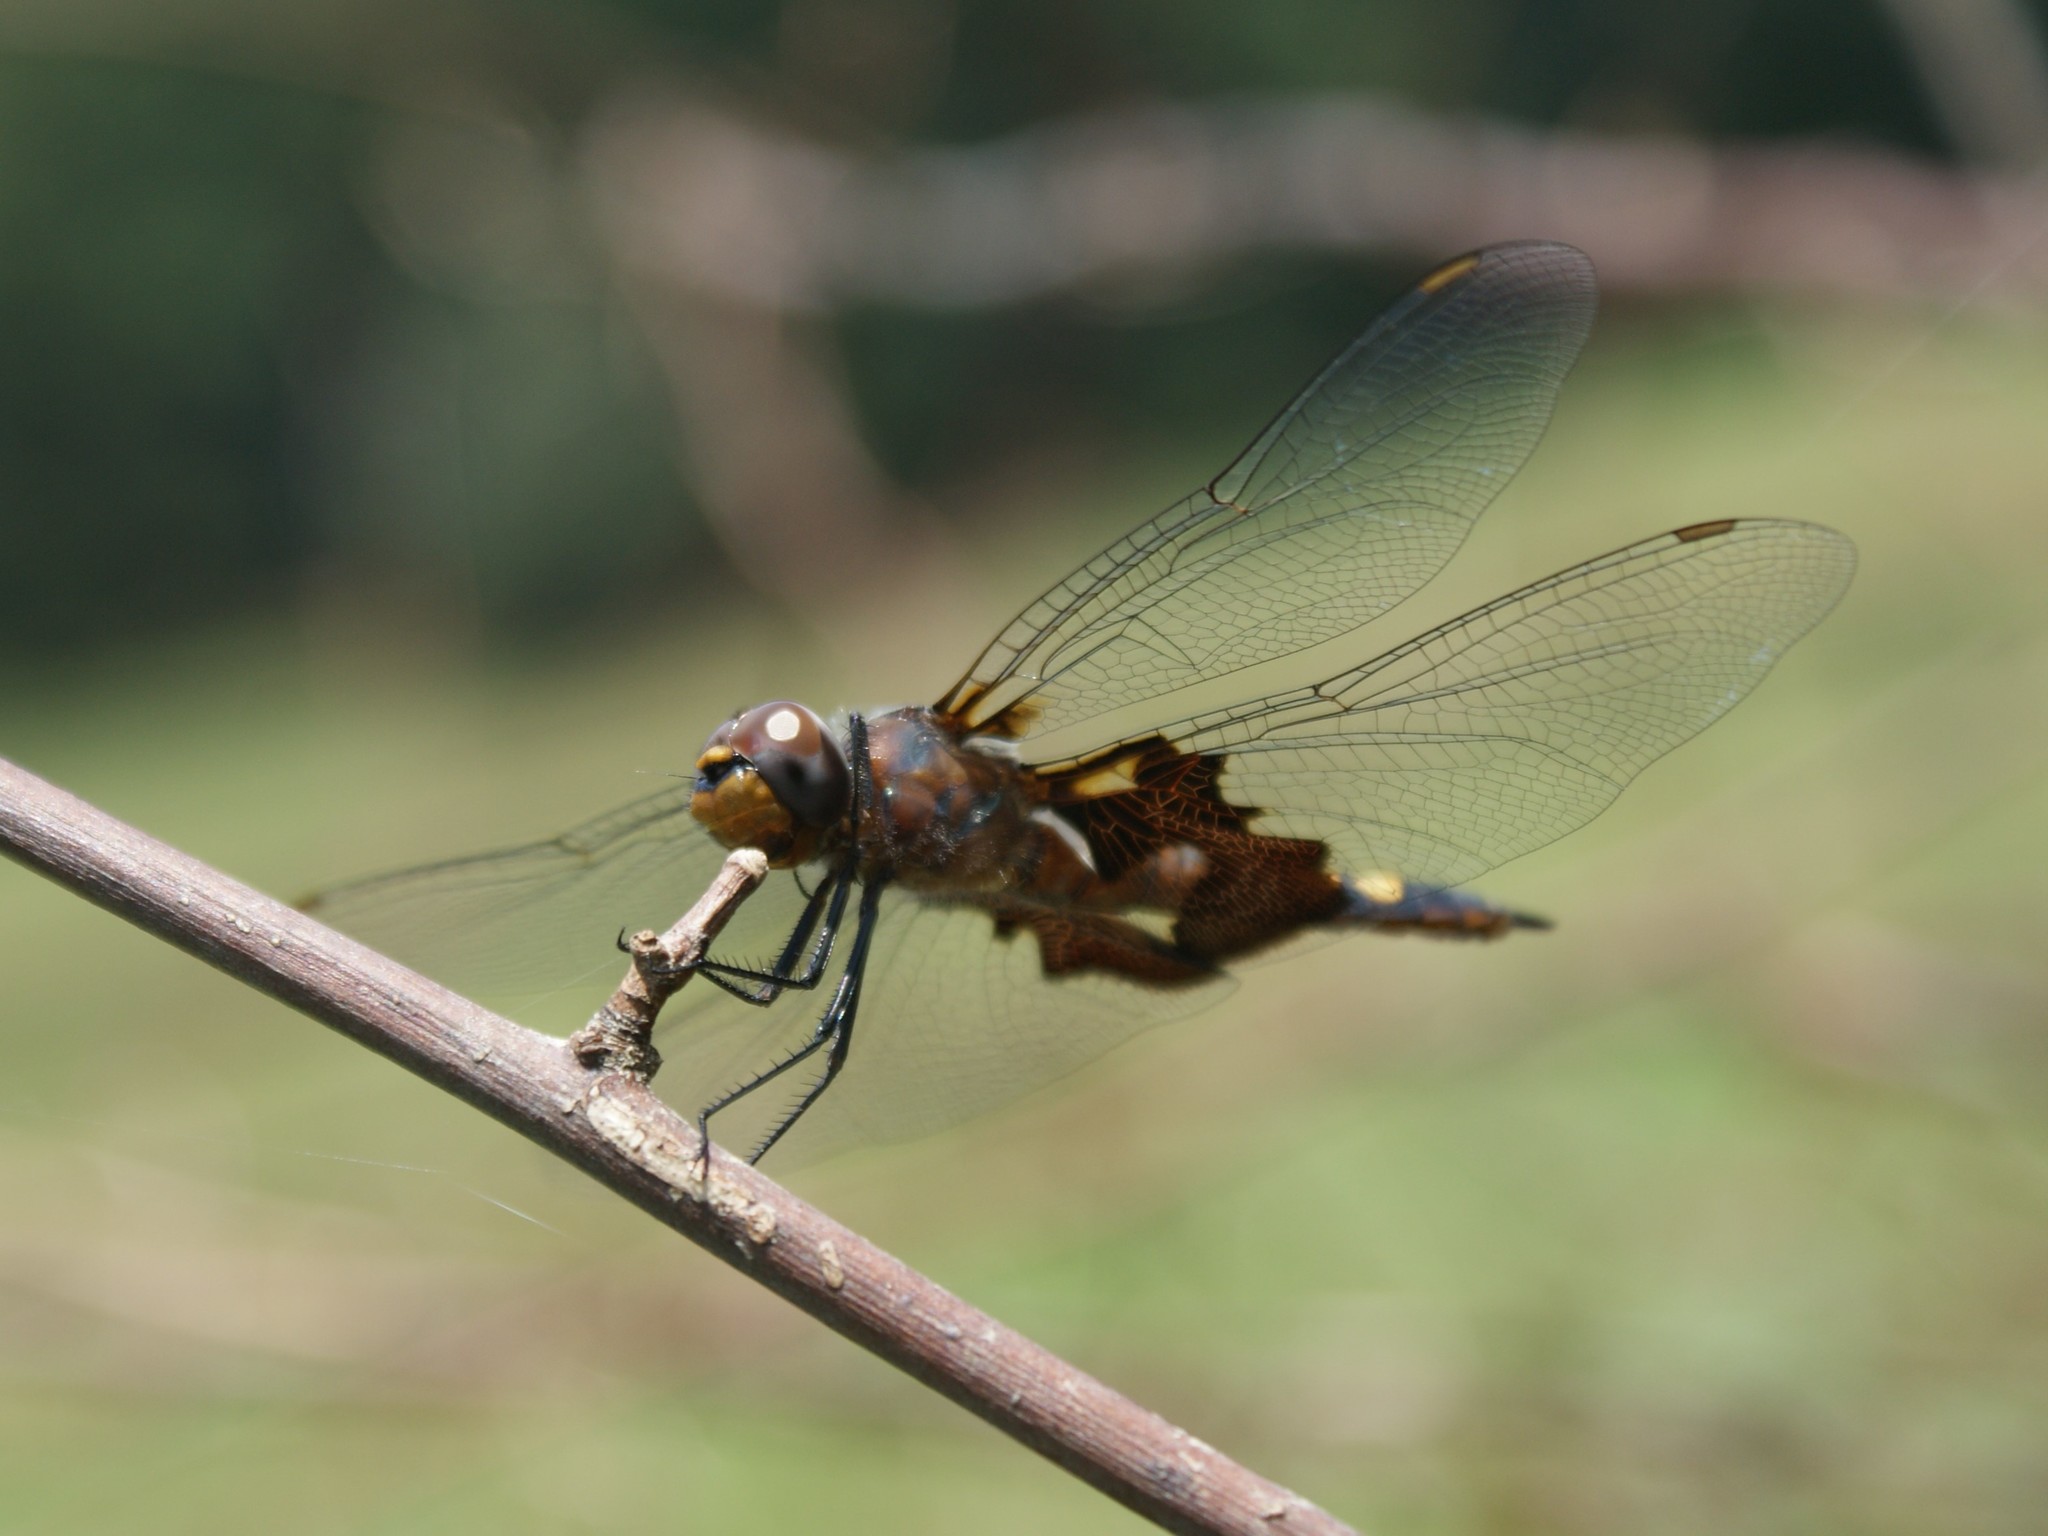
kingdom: Animalia
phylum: Arthropoda
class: Insecta
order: Odonata
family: Libellulidae
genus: Tramea
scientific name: Tramea lacerata
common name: Black saddlebags
